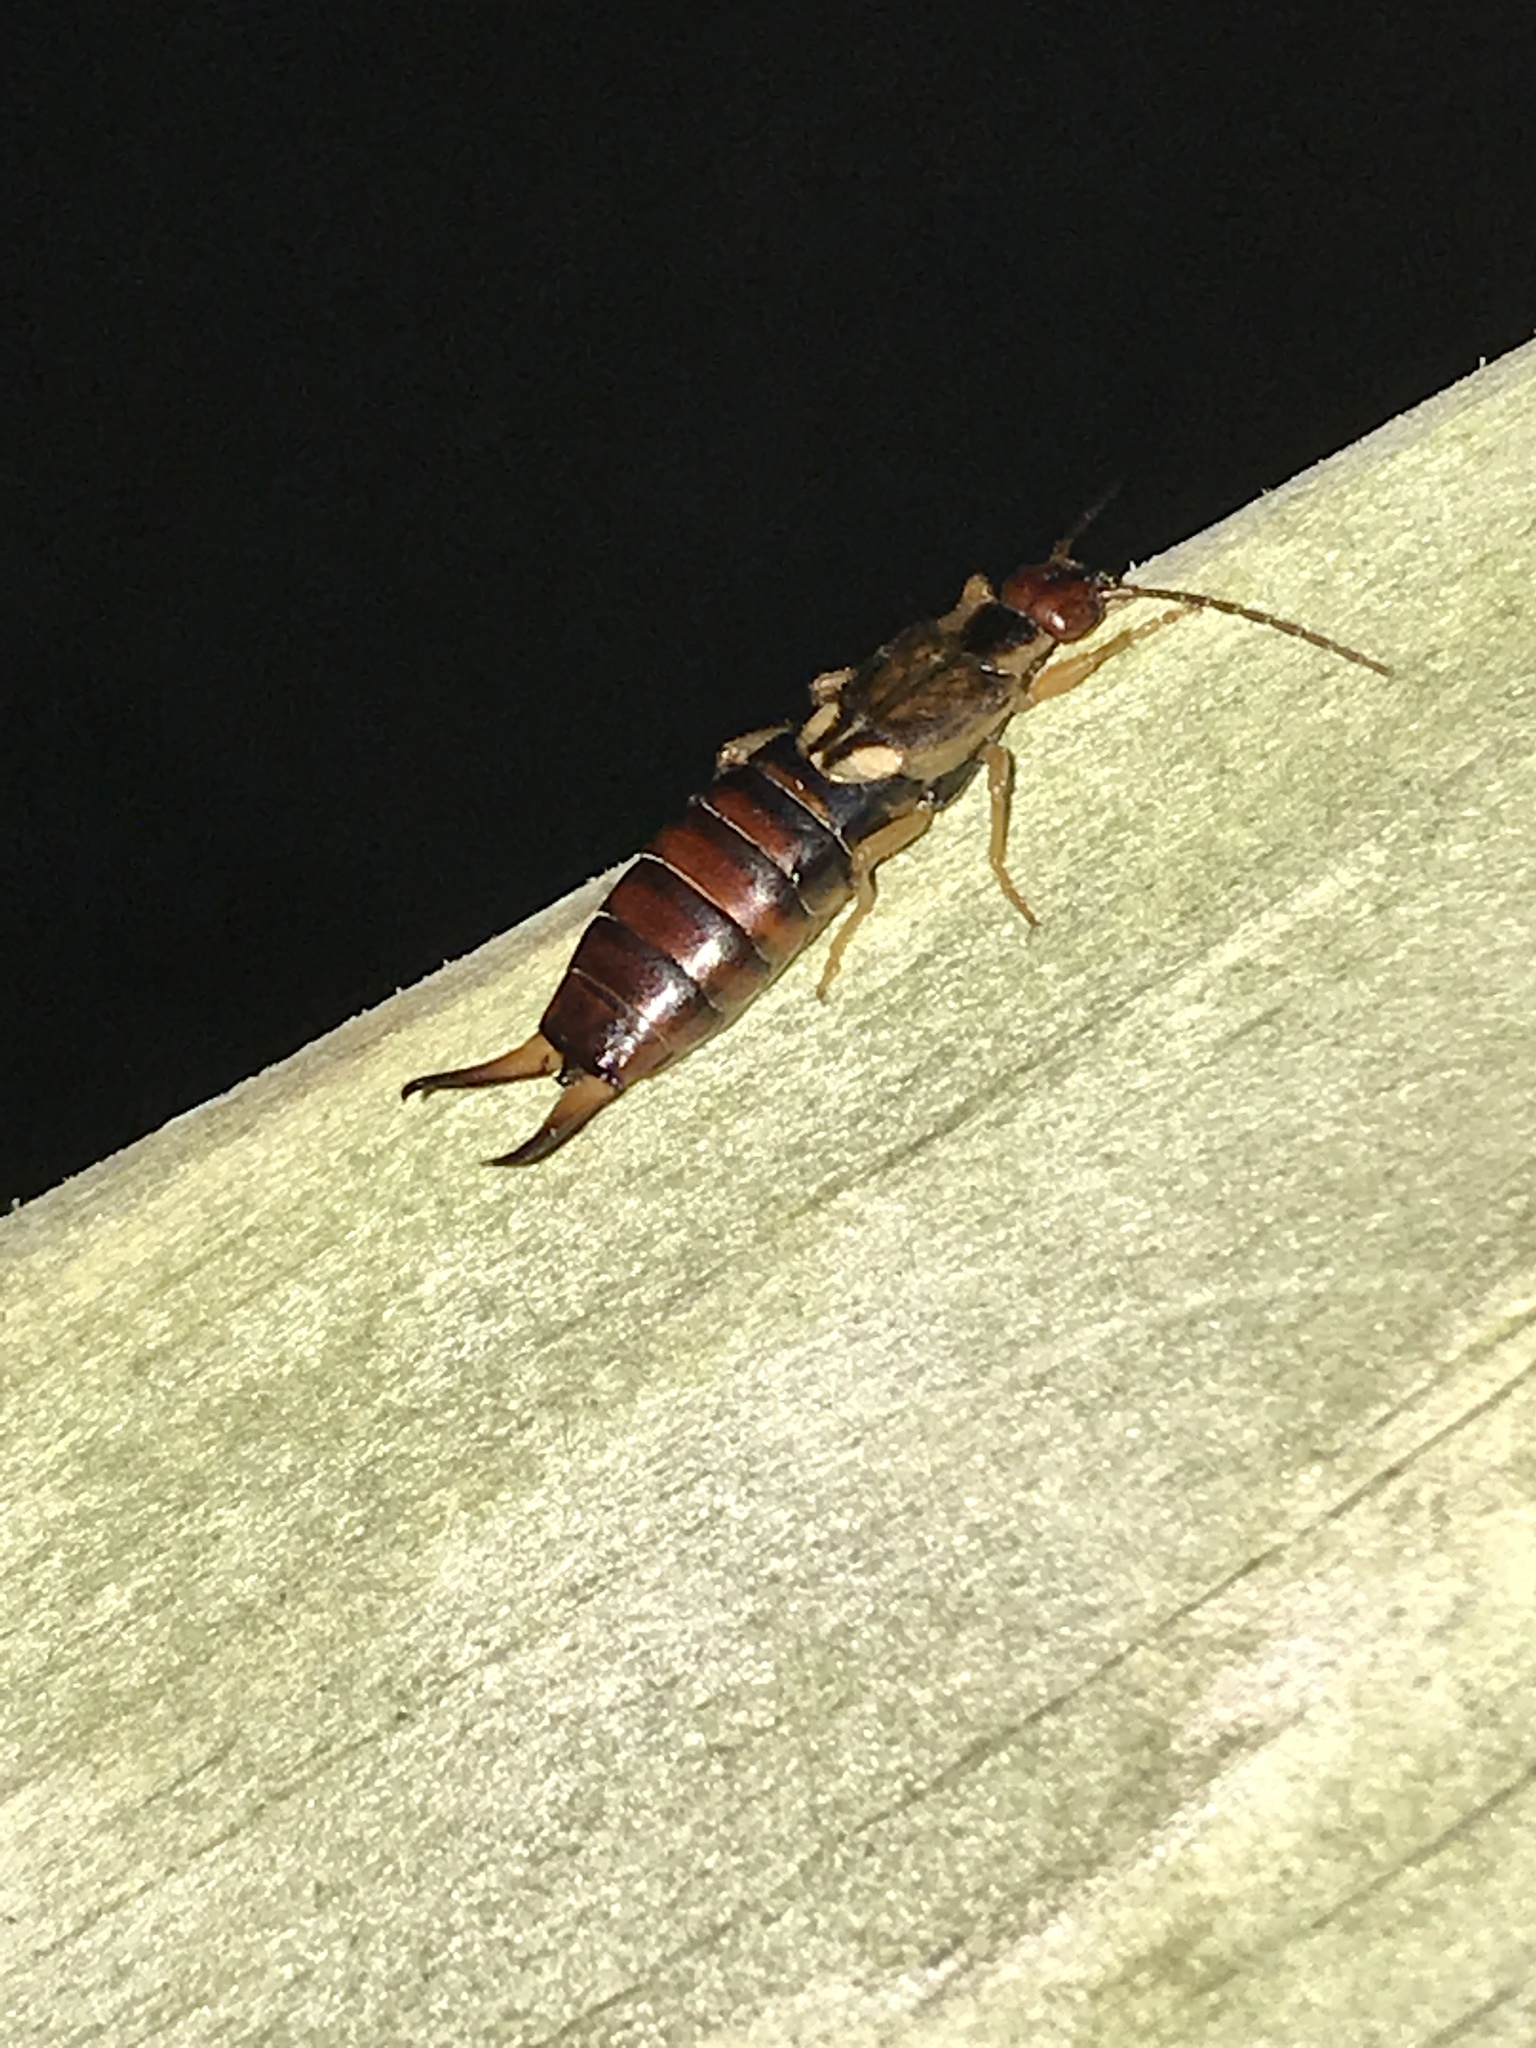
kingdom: Animalia
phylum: Arthropoda
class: Insecta
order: Dermaptera
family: Forficulidae
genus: Forficula
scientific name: Forficula
